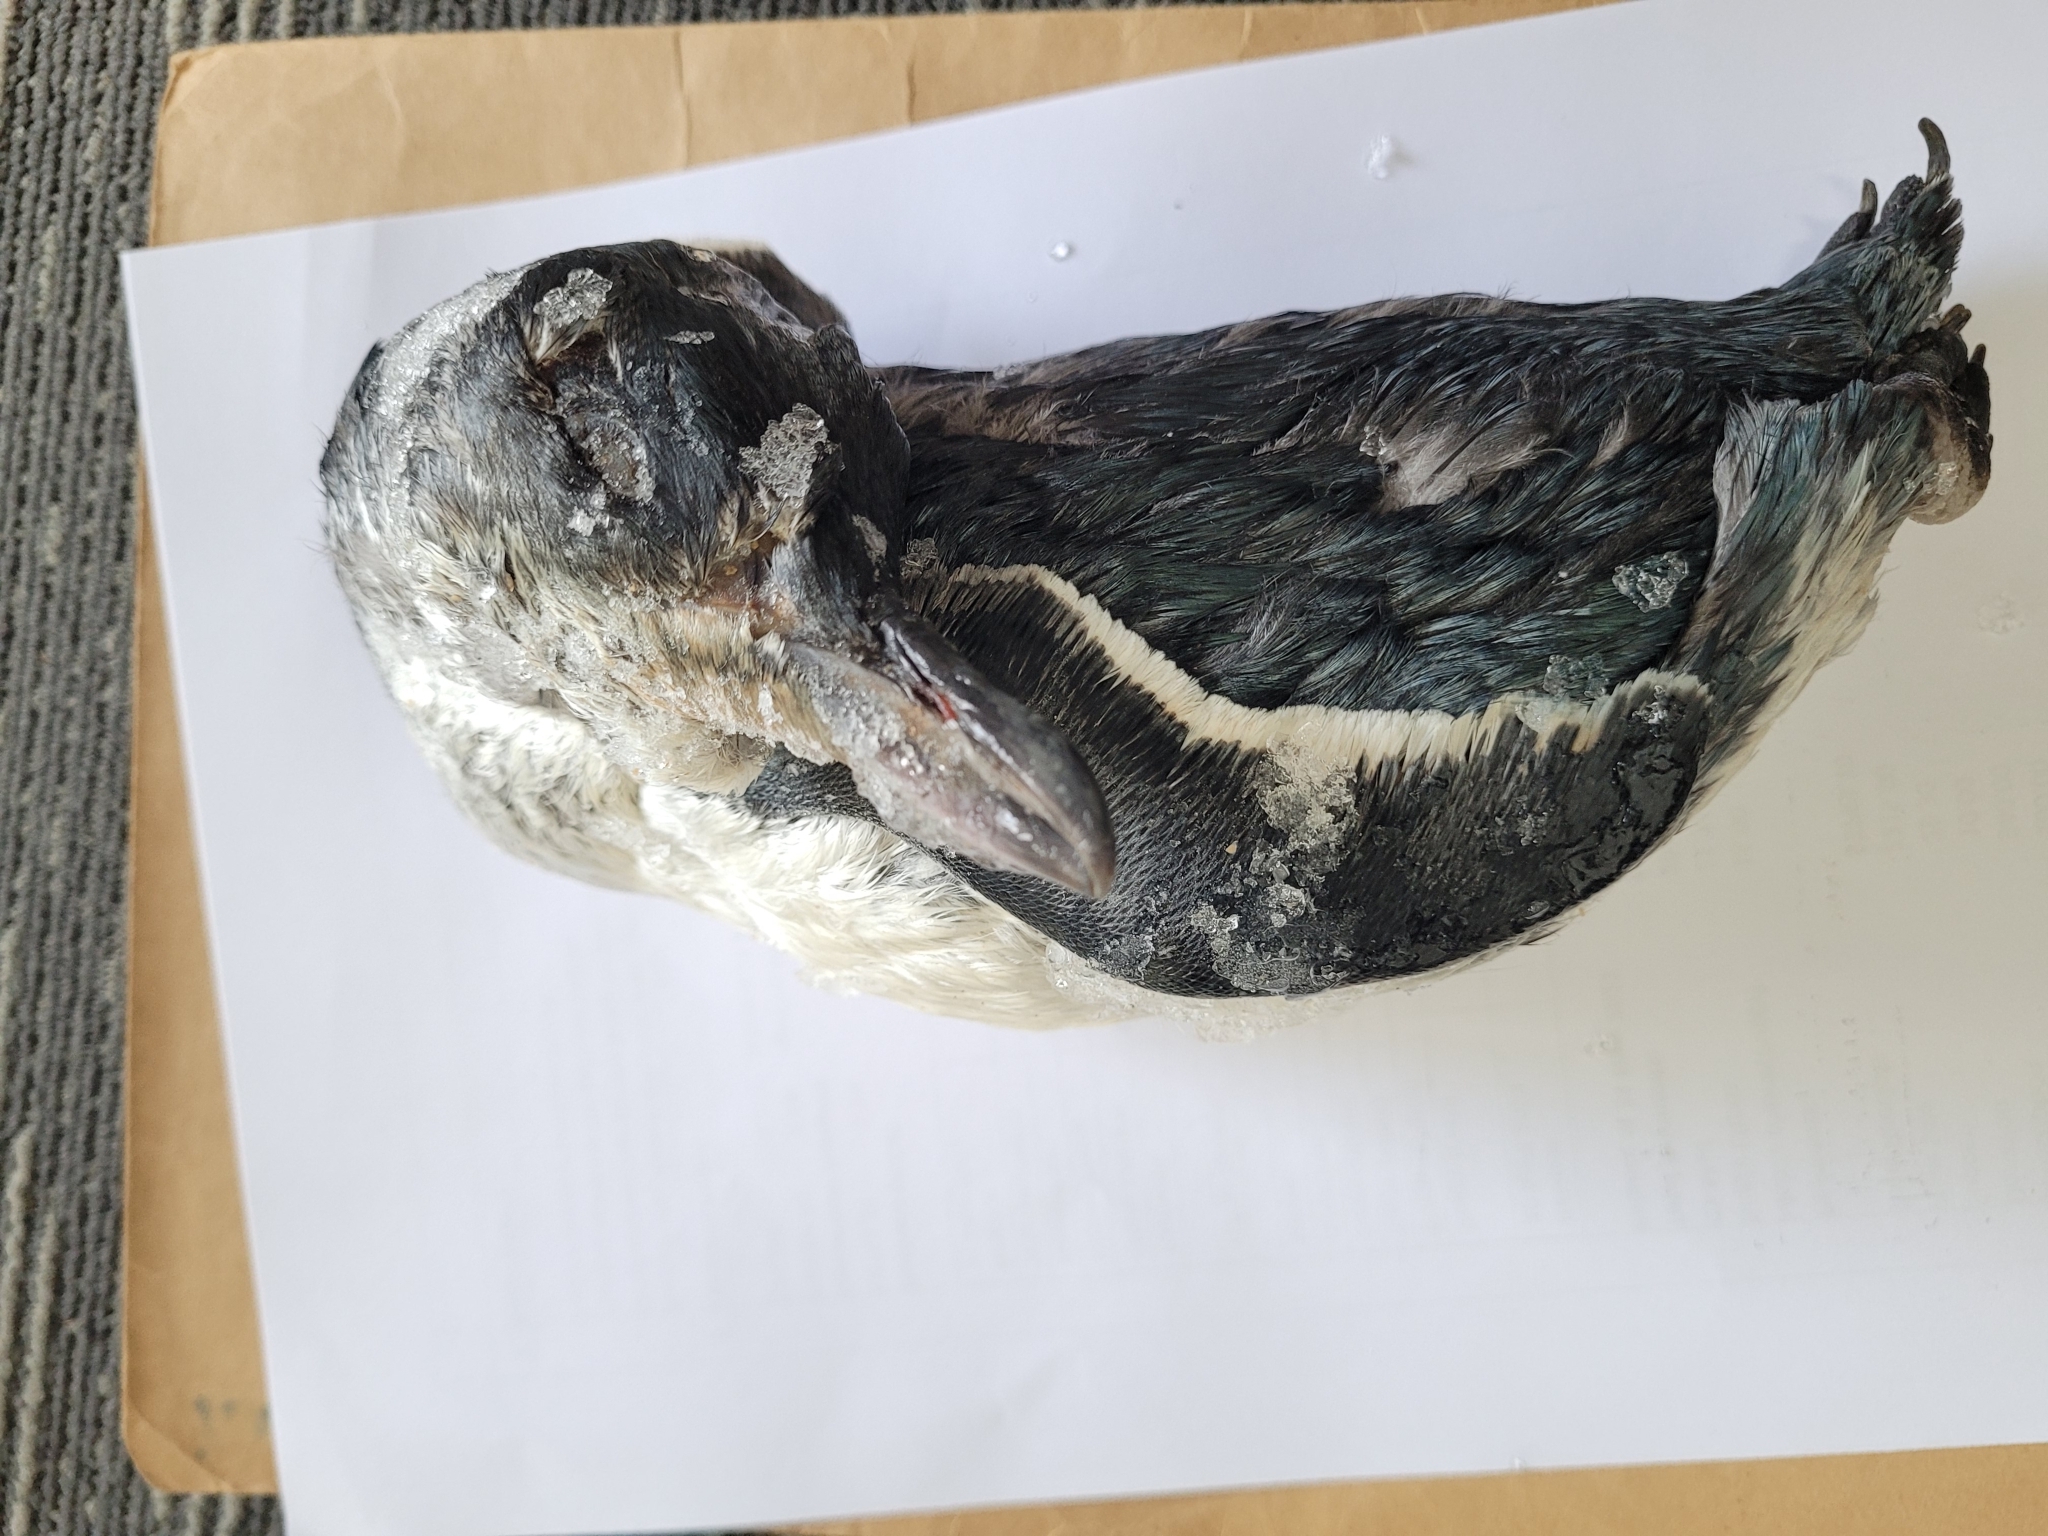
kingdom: Animalia
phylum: Chordata
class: Aves
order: Sphenisciformes
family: Spheniscidae
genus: Eudyptula
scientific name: Eudyptula minor
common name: Little penguin
